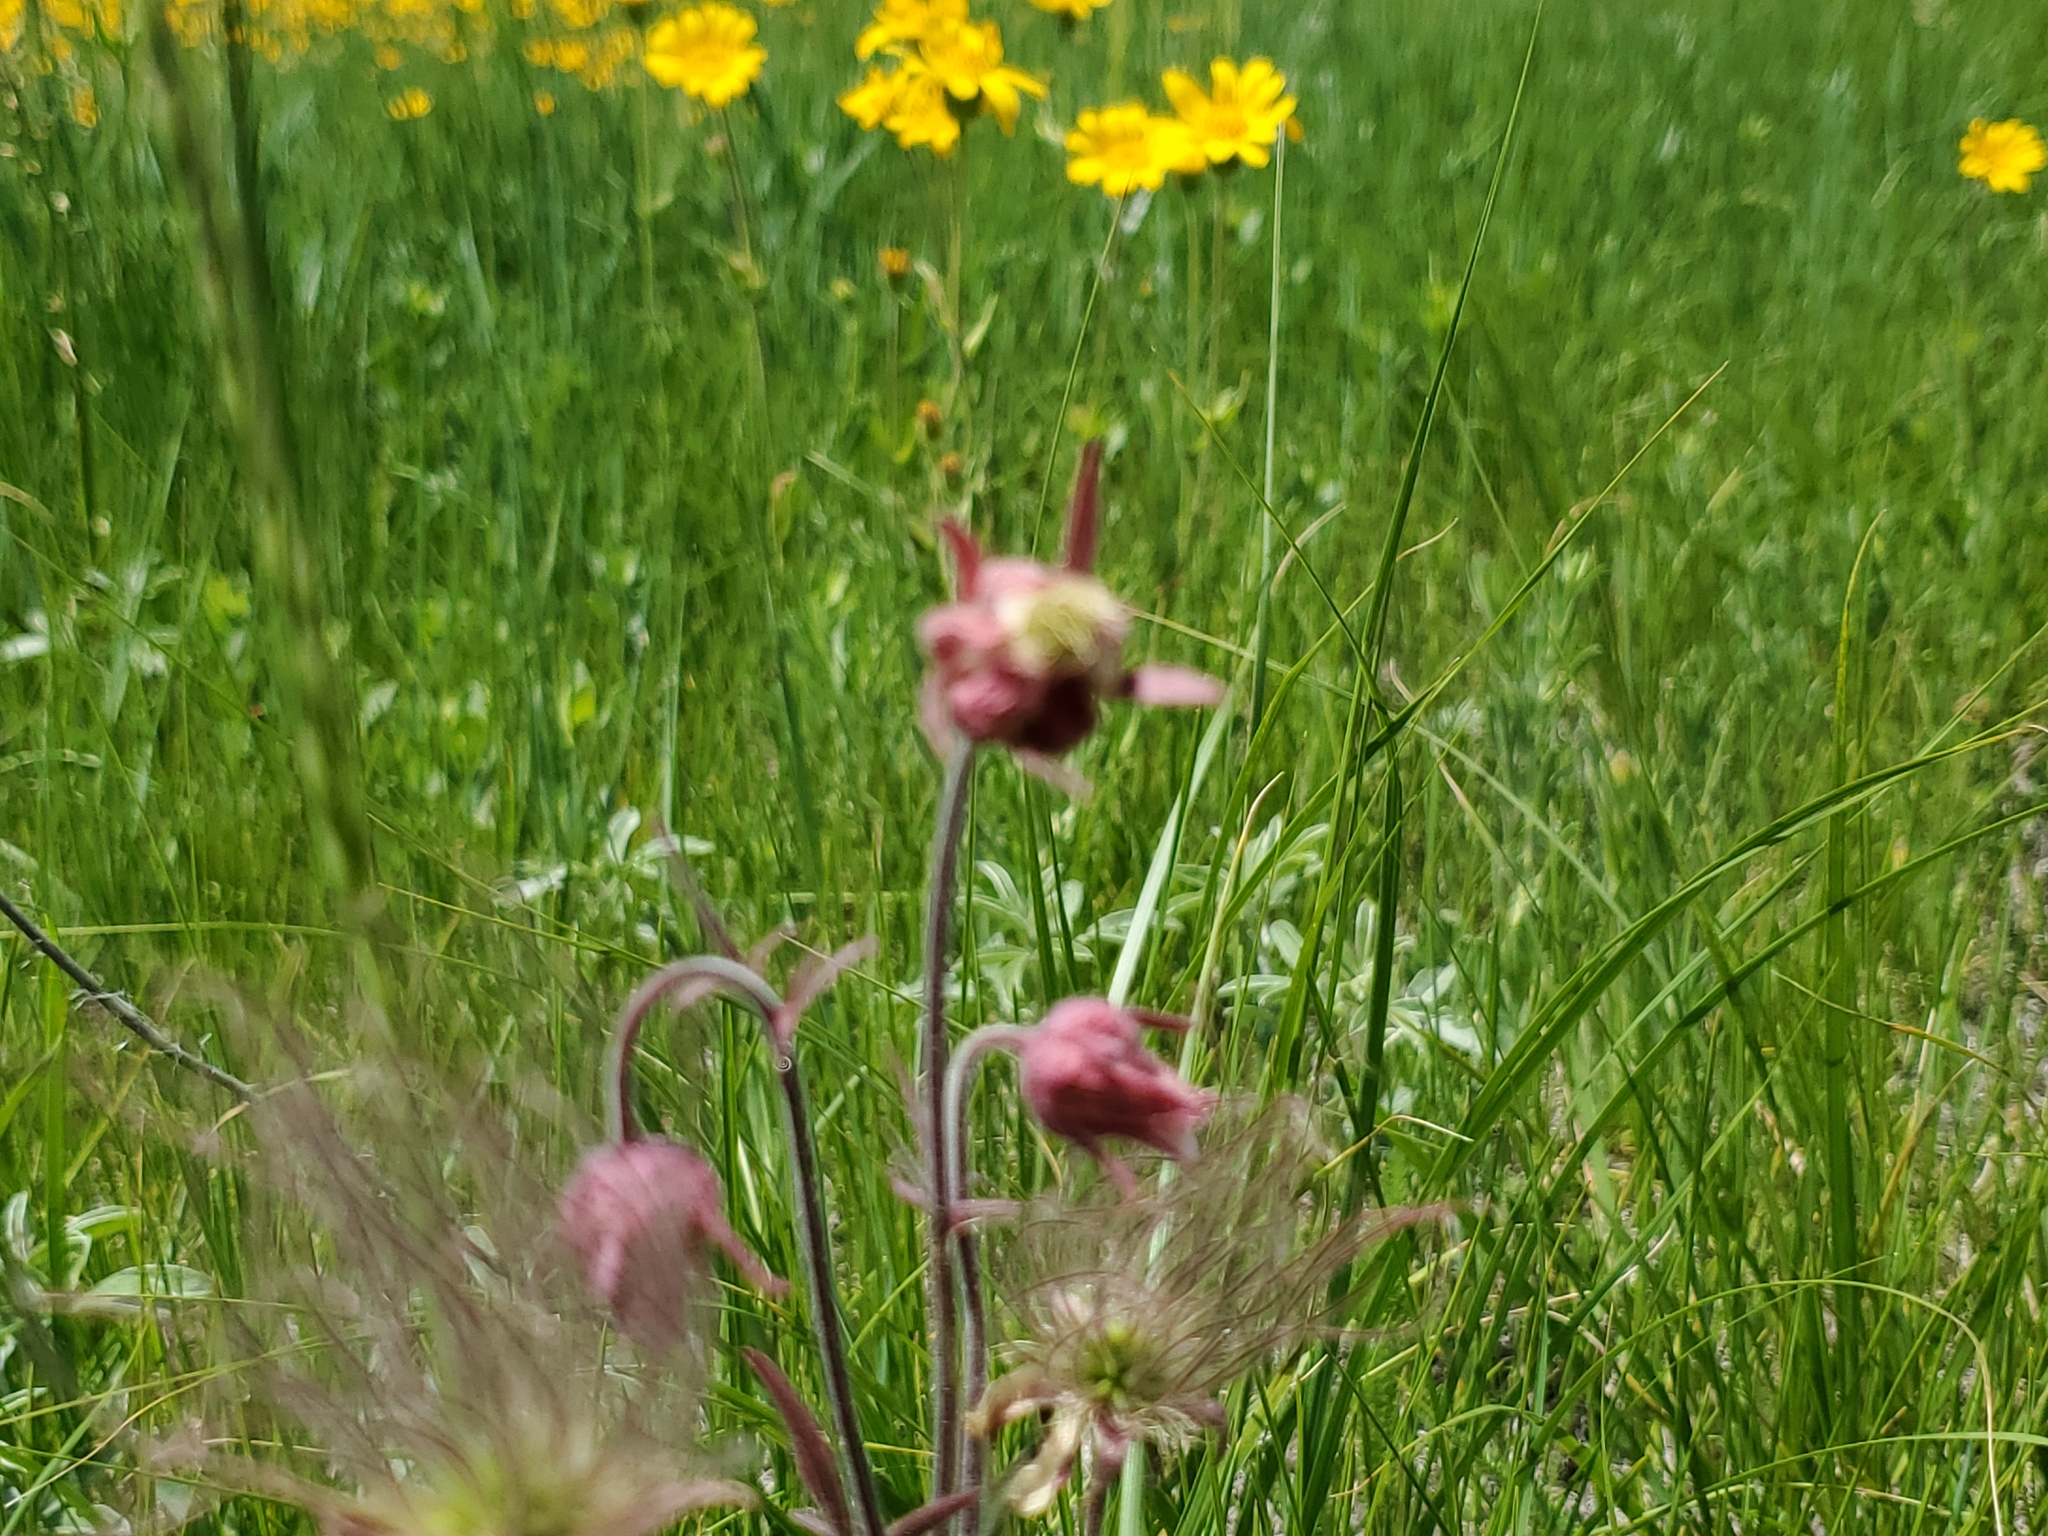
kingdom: Plantae
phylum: Tracheophyta
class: Magnoliopsida
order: Rosales
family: Rosaceae
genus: Geum
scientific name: Geum triflorum
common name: Old man's whiskers
